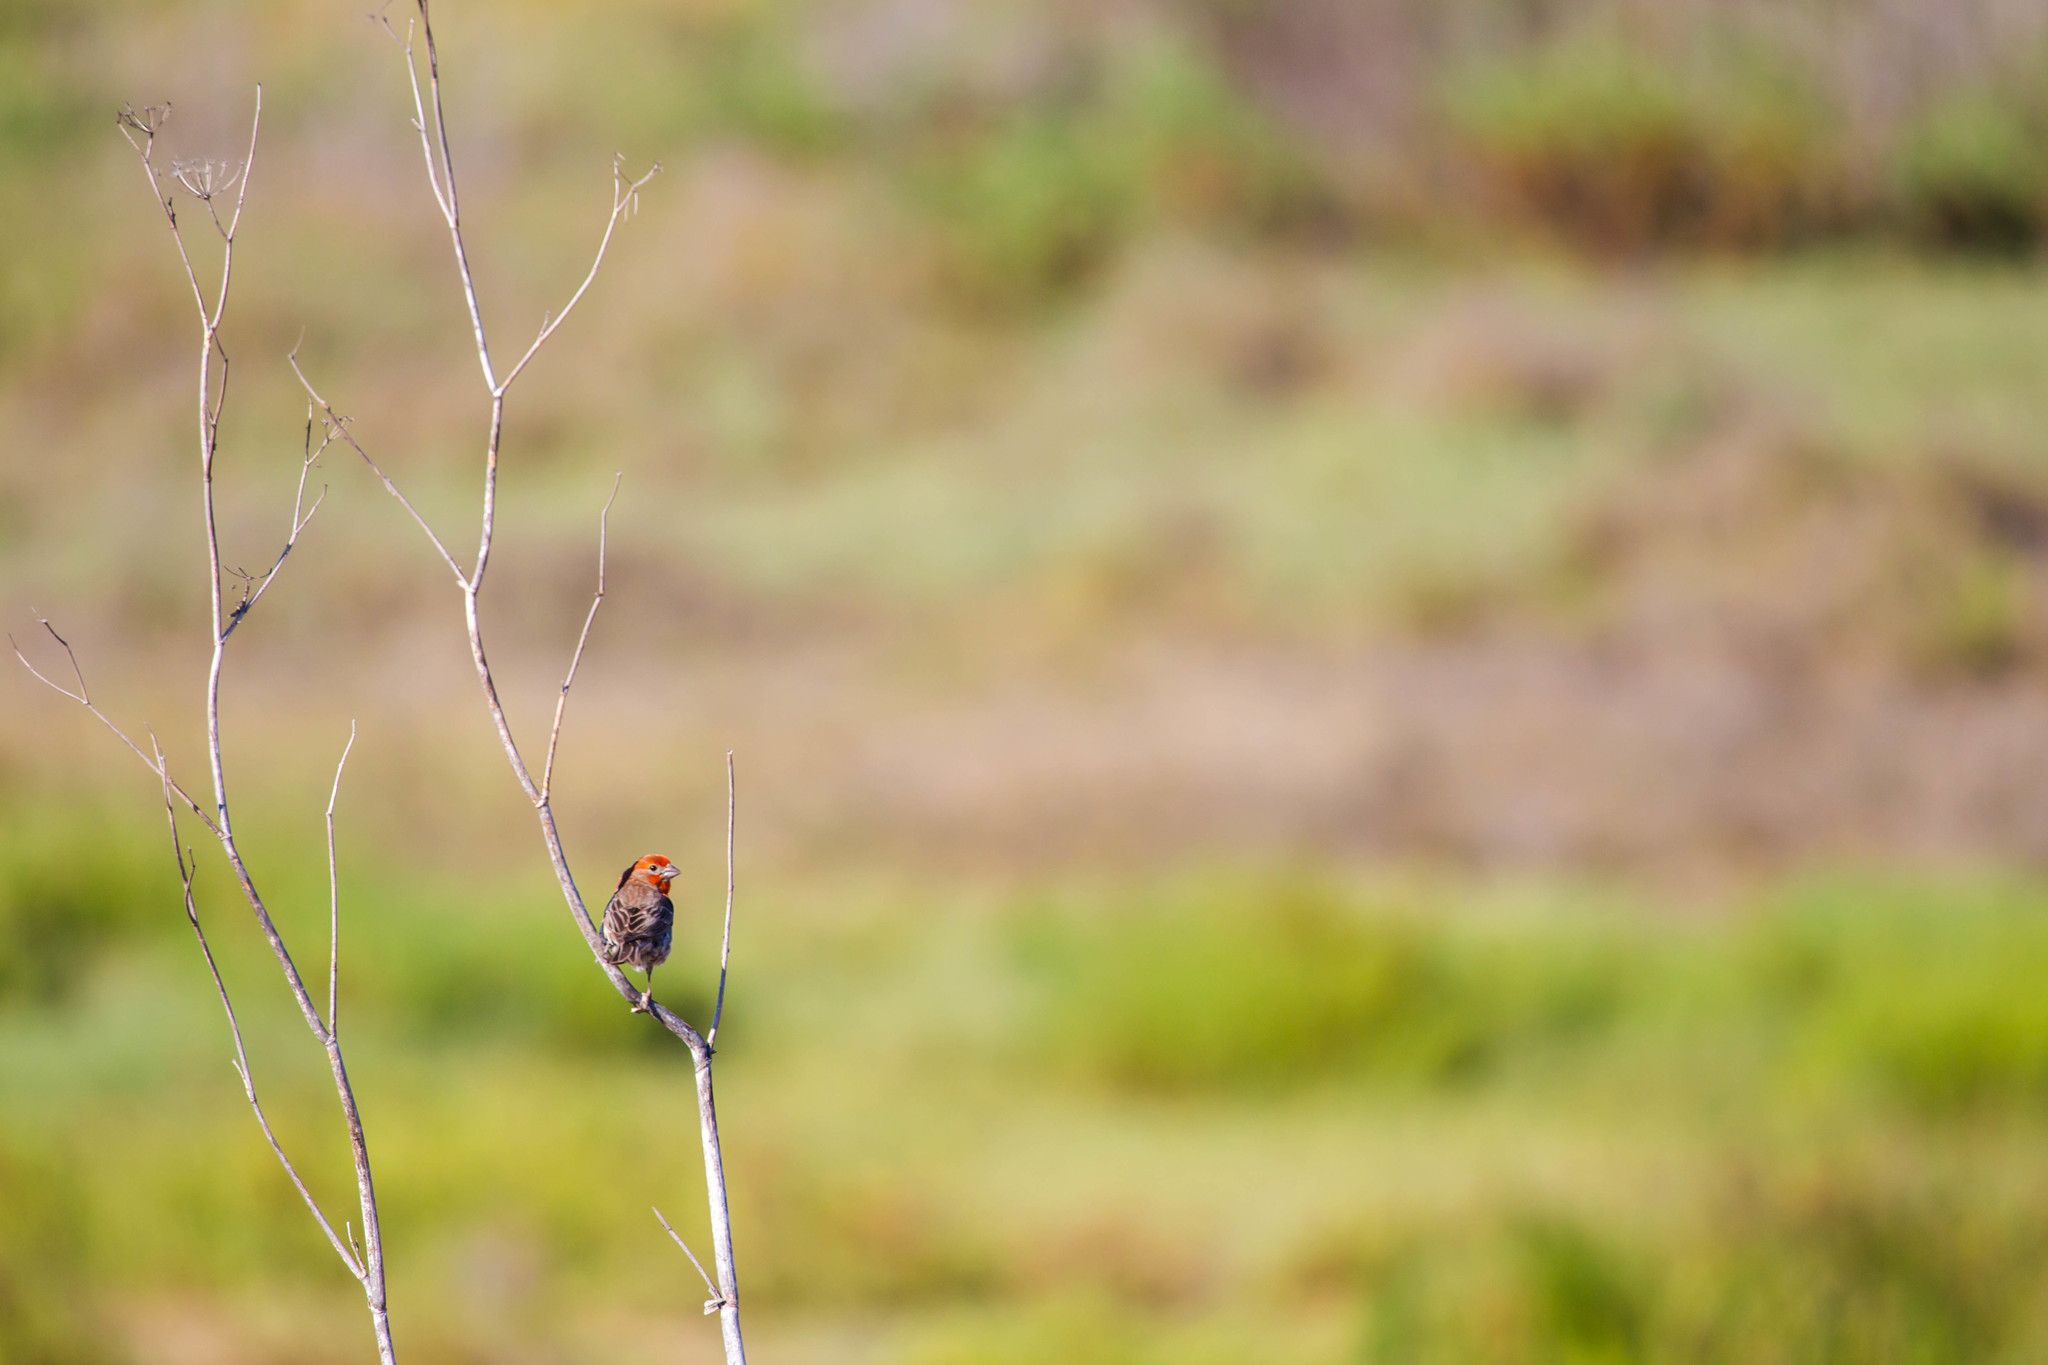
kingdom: Animalia
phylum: Chordata
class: Aves
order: Passeriformes
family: Fringillidae
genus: Haemorhous
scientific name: Haemorhous mexicanus
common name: House finch
